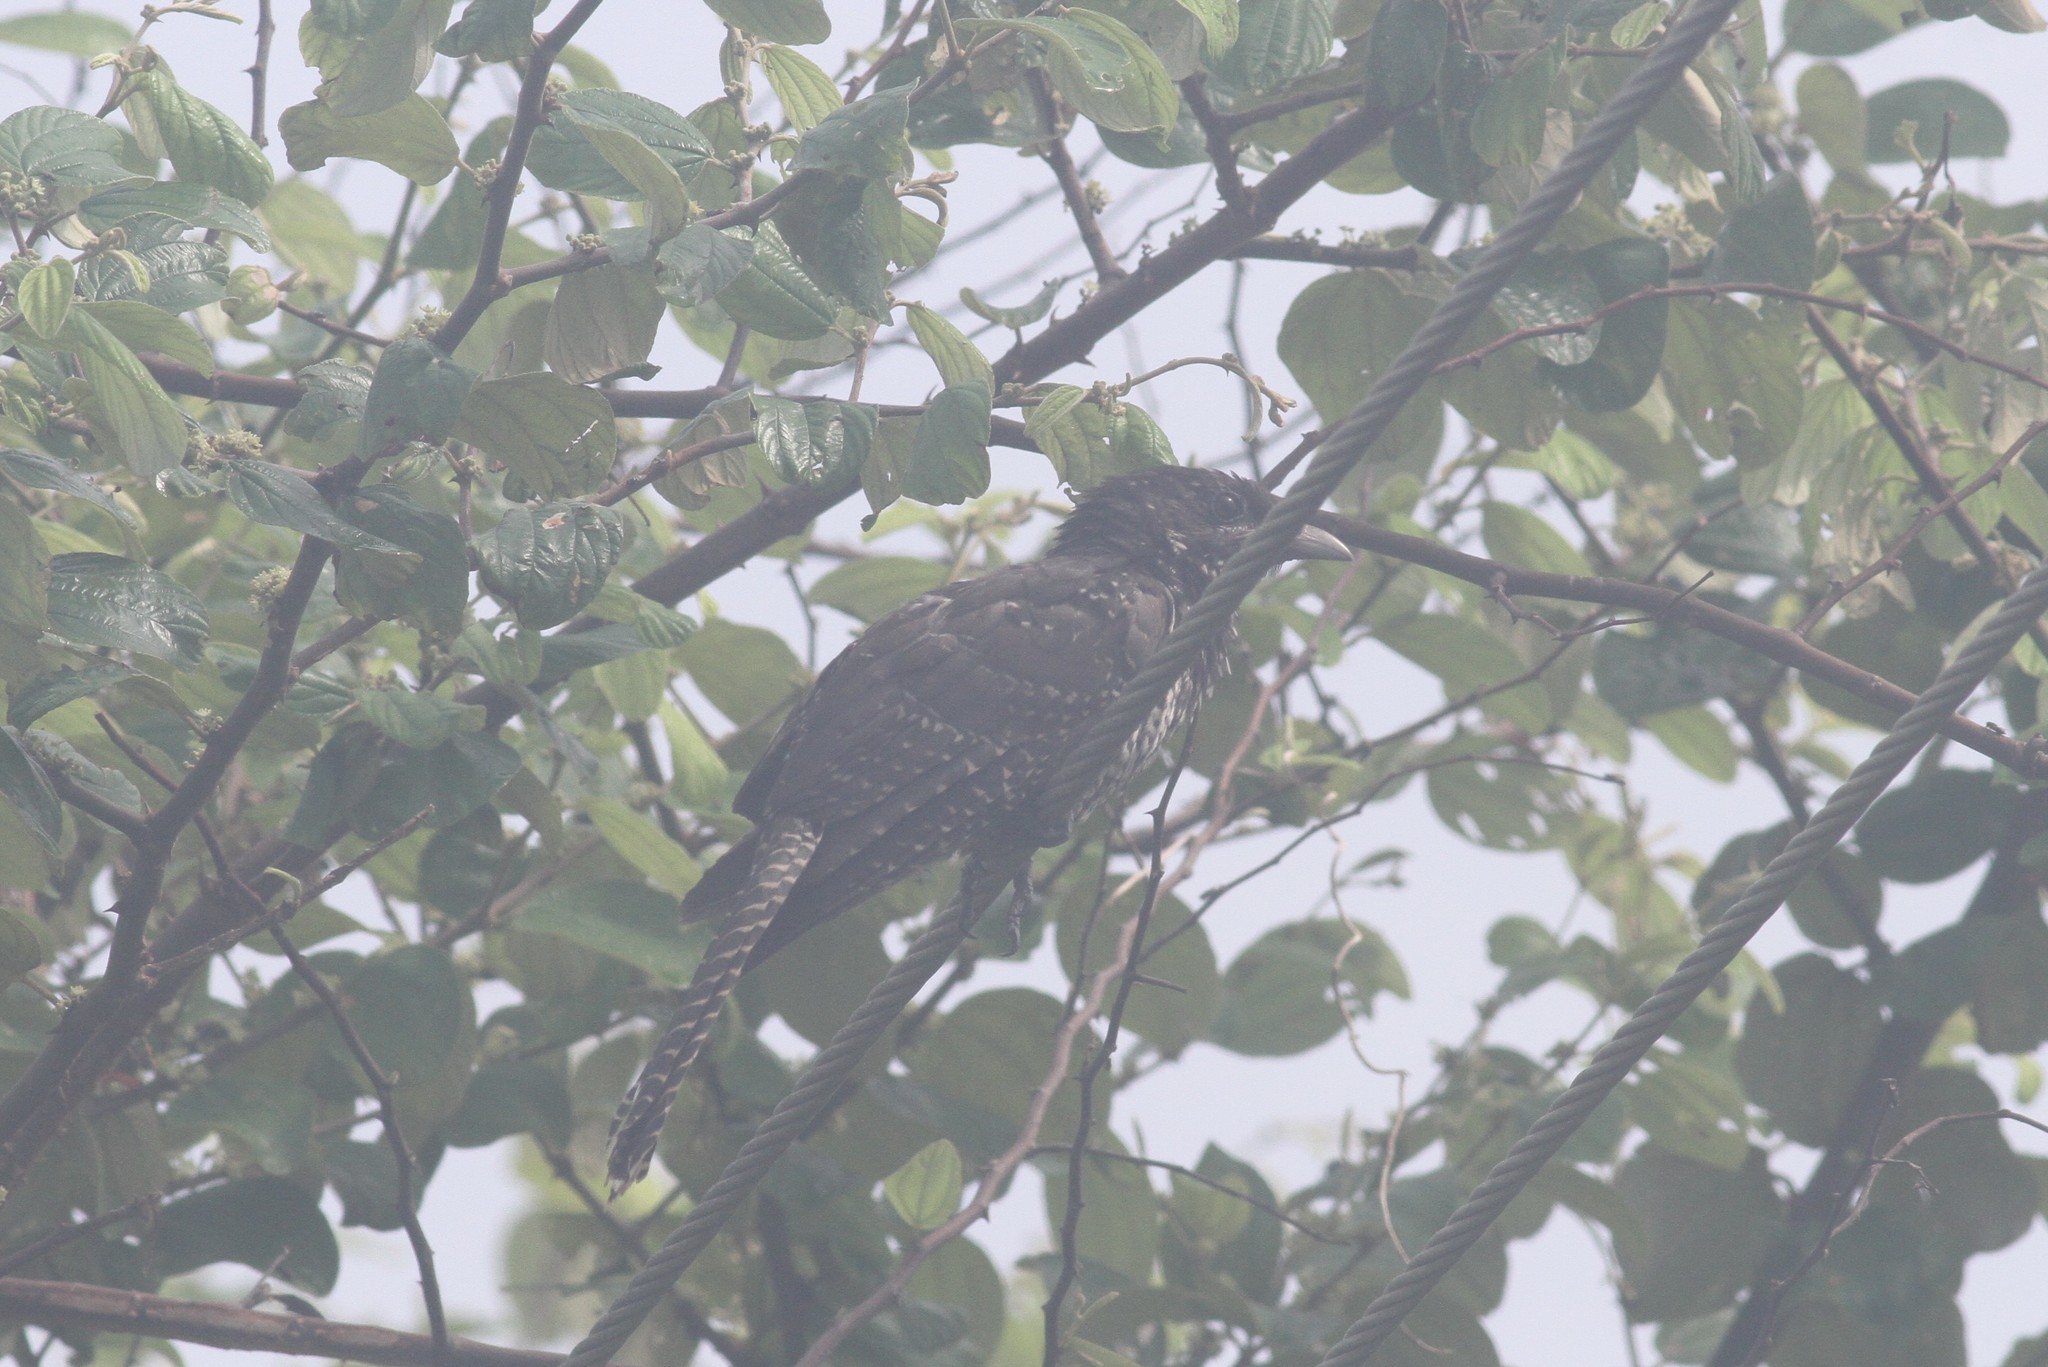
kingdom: Animalia
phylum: Chordata
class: Aves
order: Cuculiformes
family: Cuculidae
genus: Eudynamys
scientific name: Eudynamys scolopaceus
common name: Asian koel
